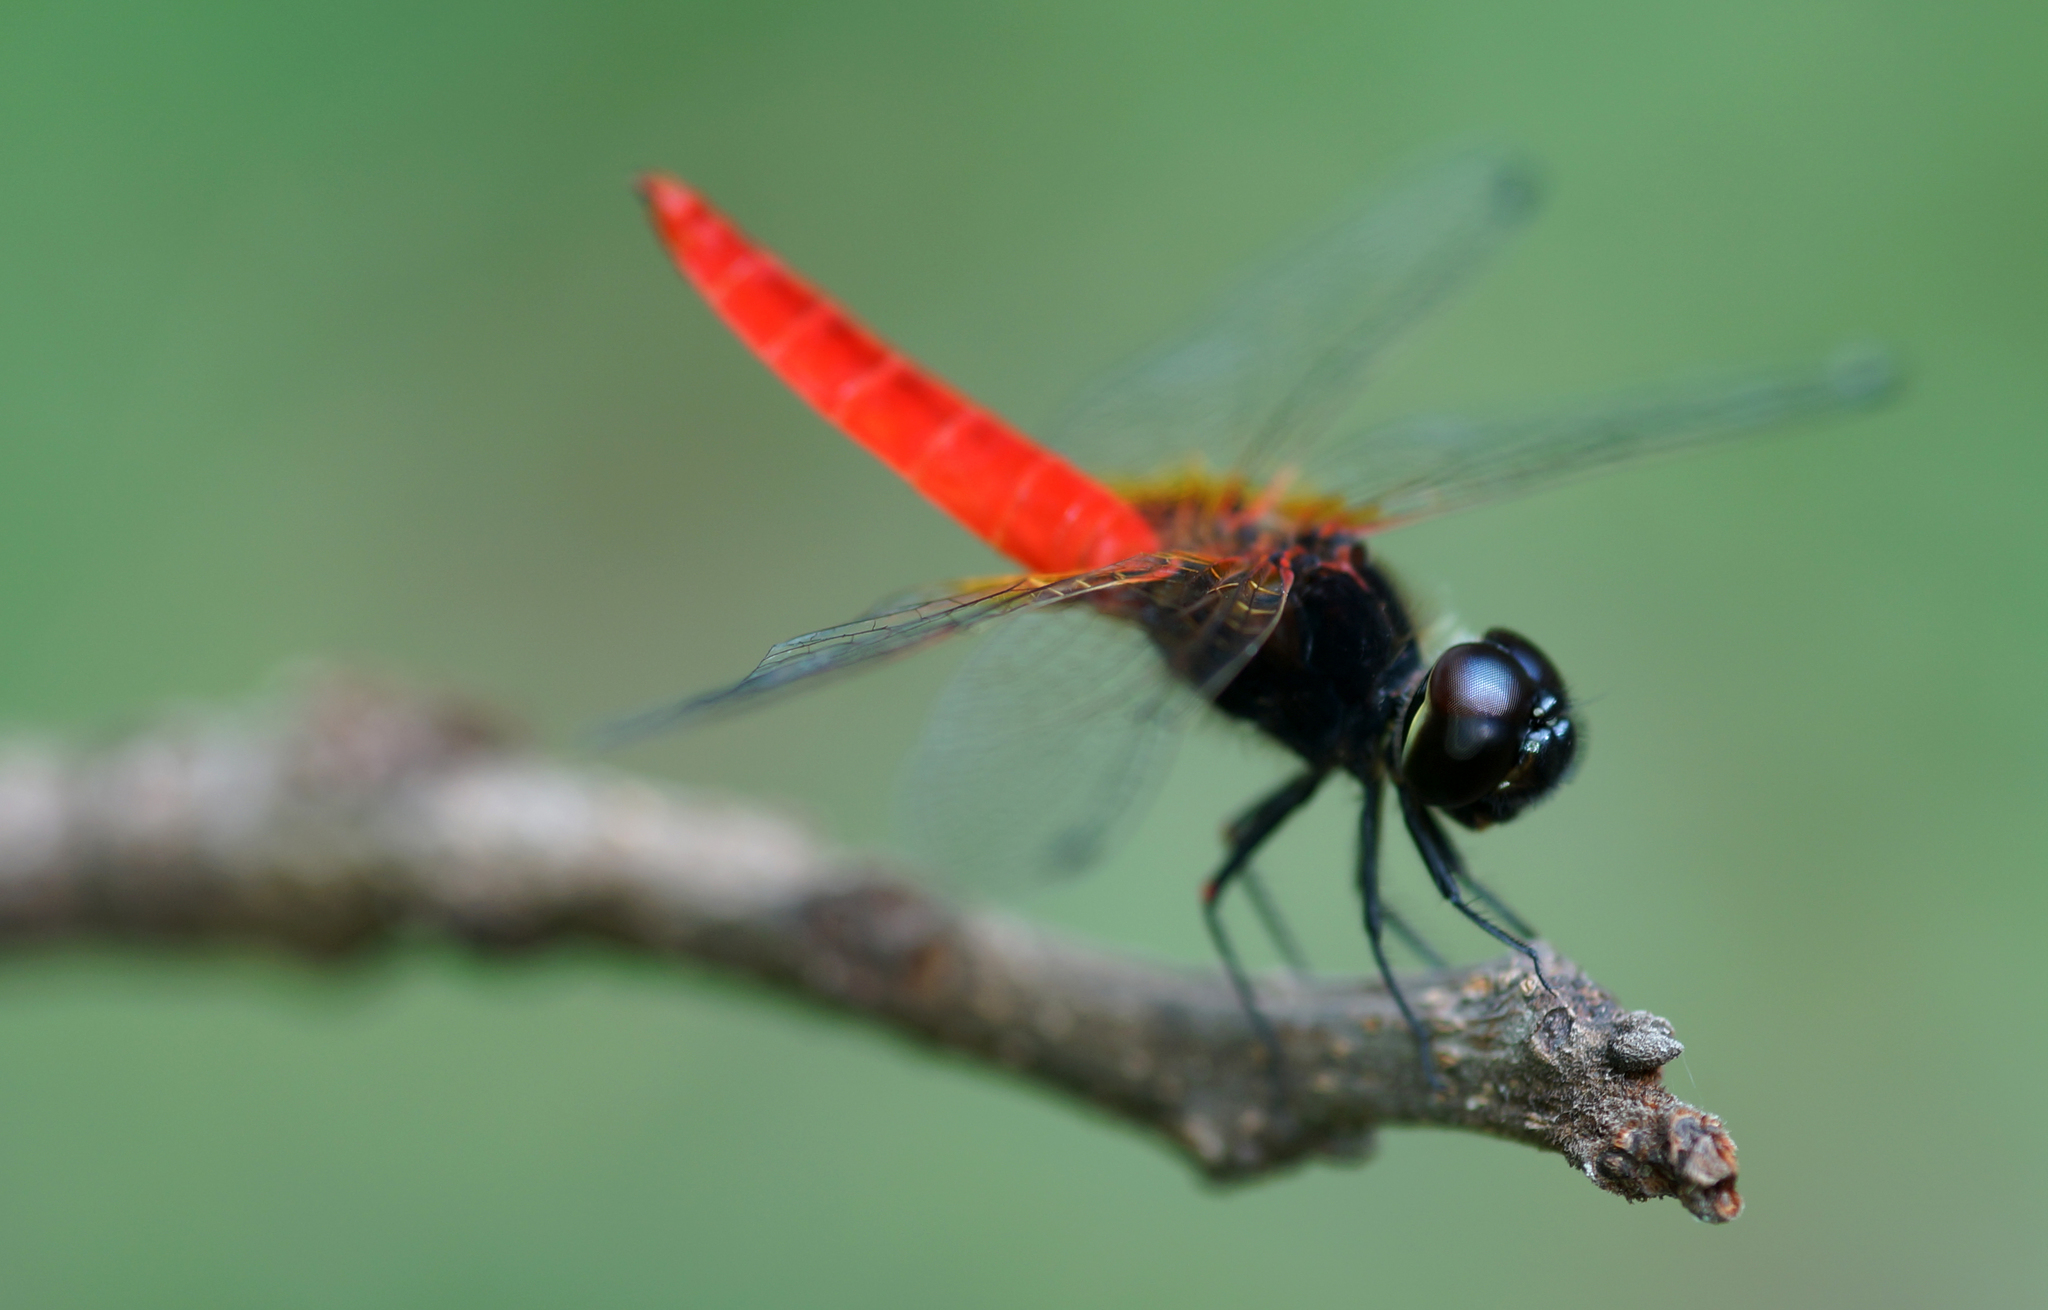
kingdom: Animalia
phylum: Arthropoda
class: Insecta
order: Odonata
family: Libellulidae
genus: Aethriamanta
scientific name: Aethriamanta brevipennis
